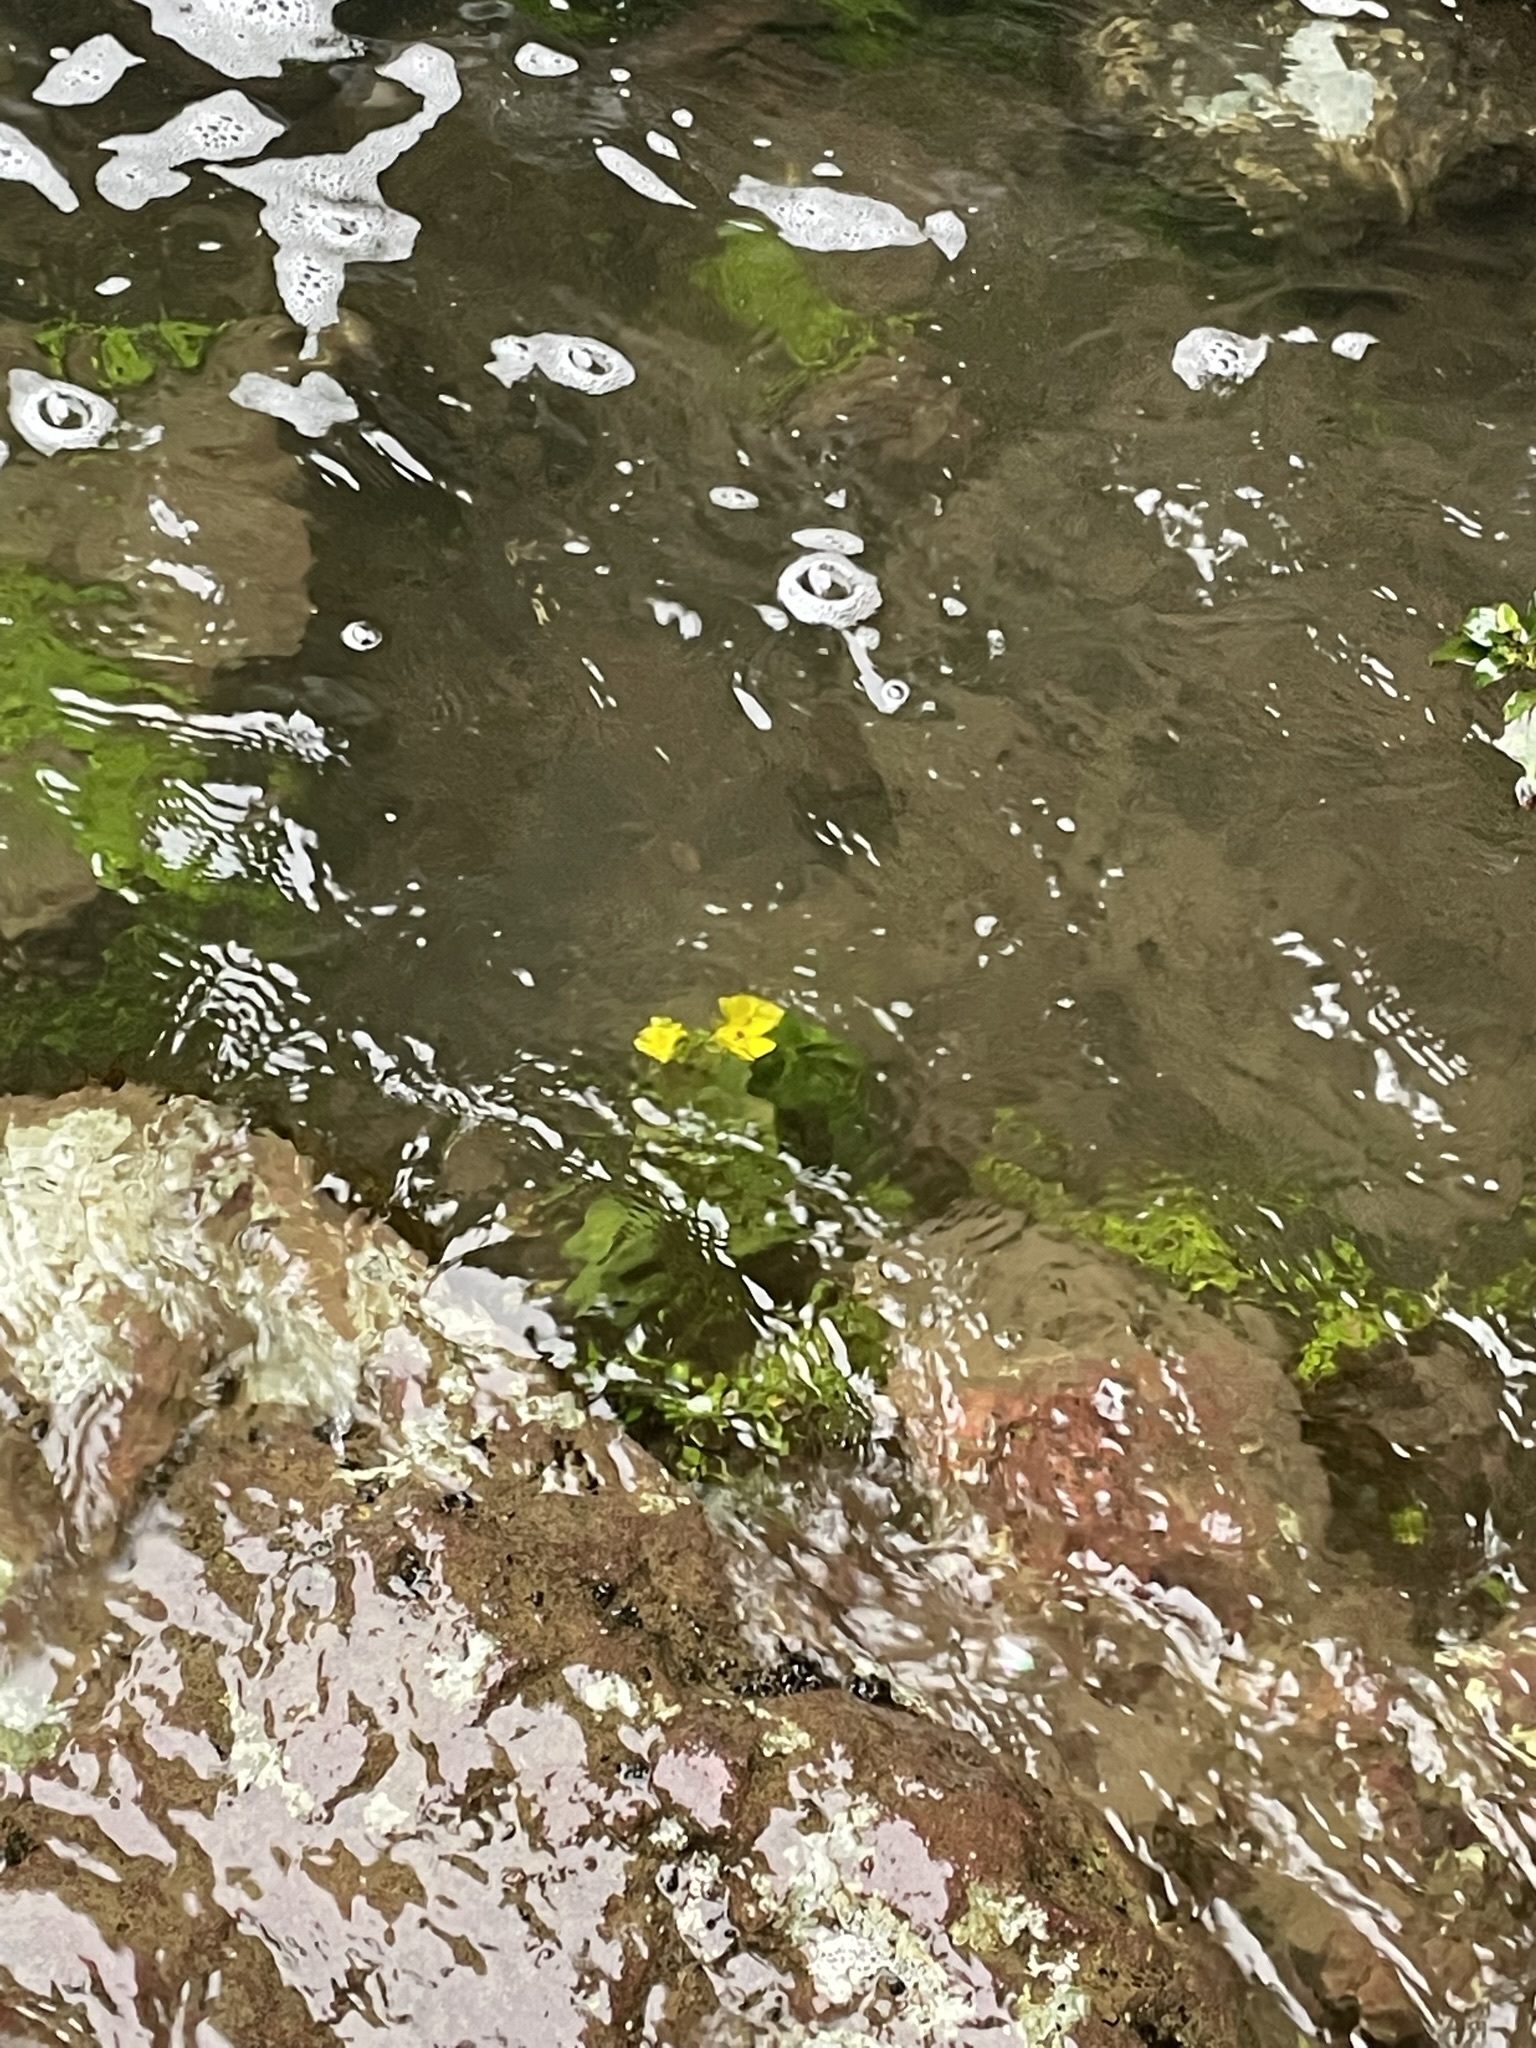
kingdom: Plantae
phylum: Tracheophyta
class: Magnoliopsida
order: Ranunculales
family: Ranunculaceae
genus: Ranunculus
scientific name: Ranunculus insignis
